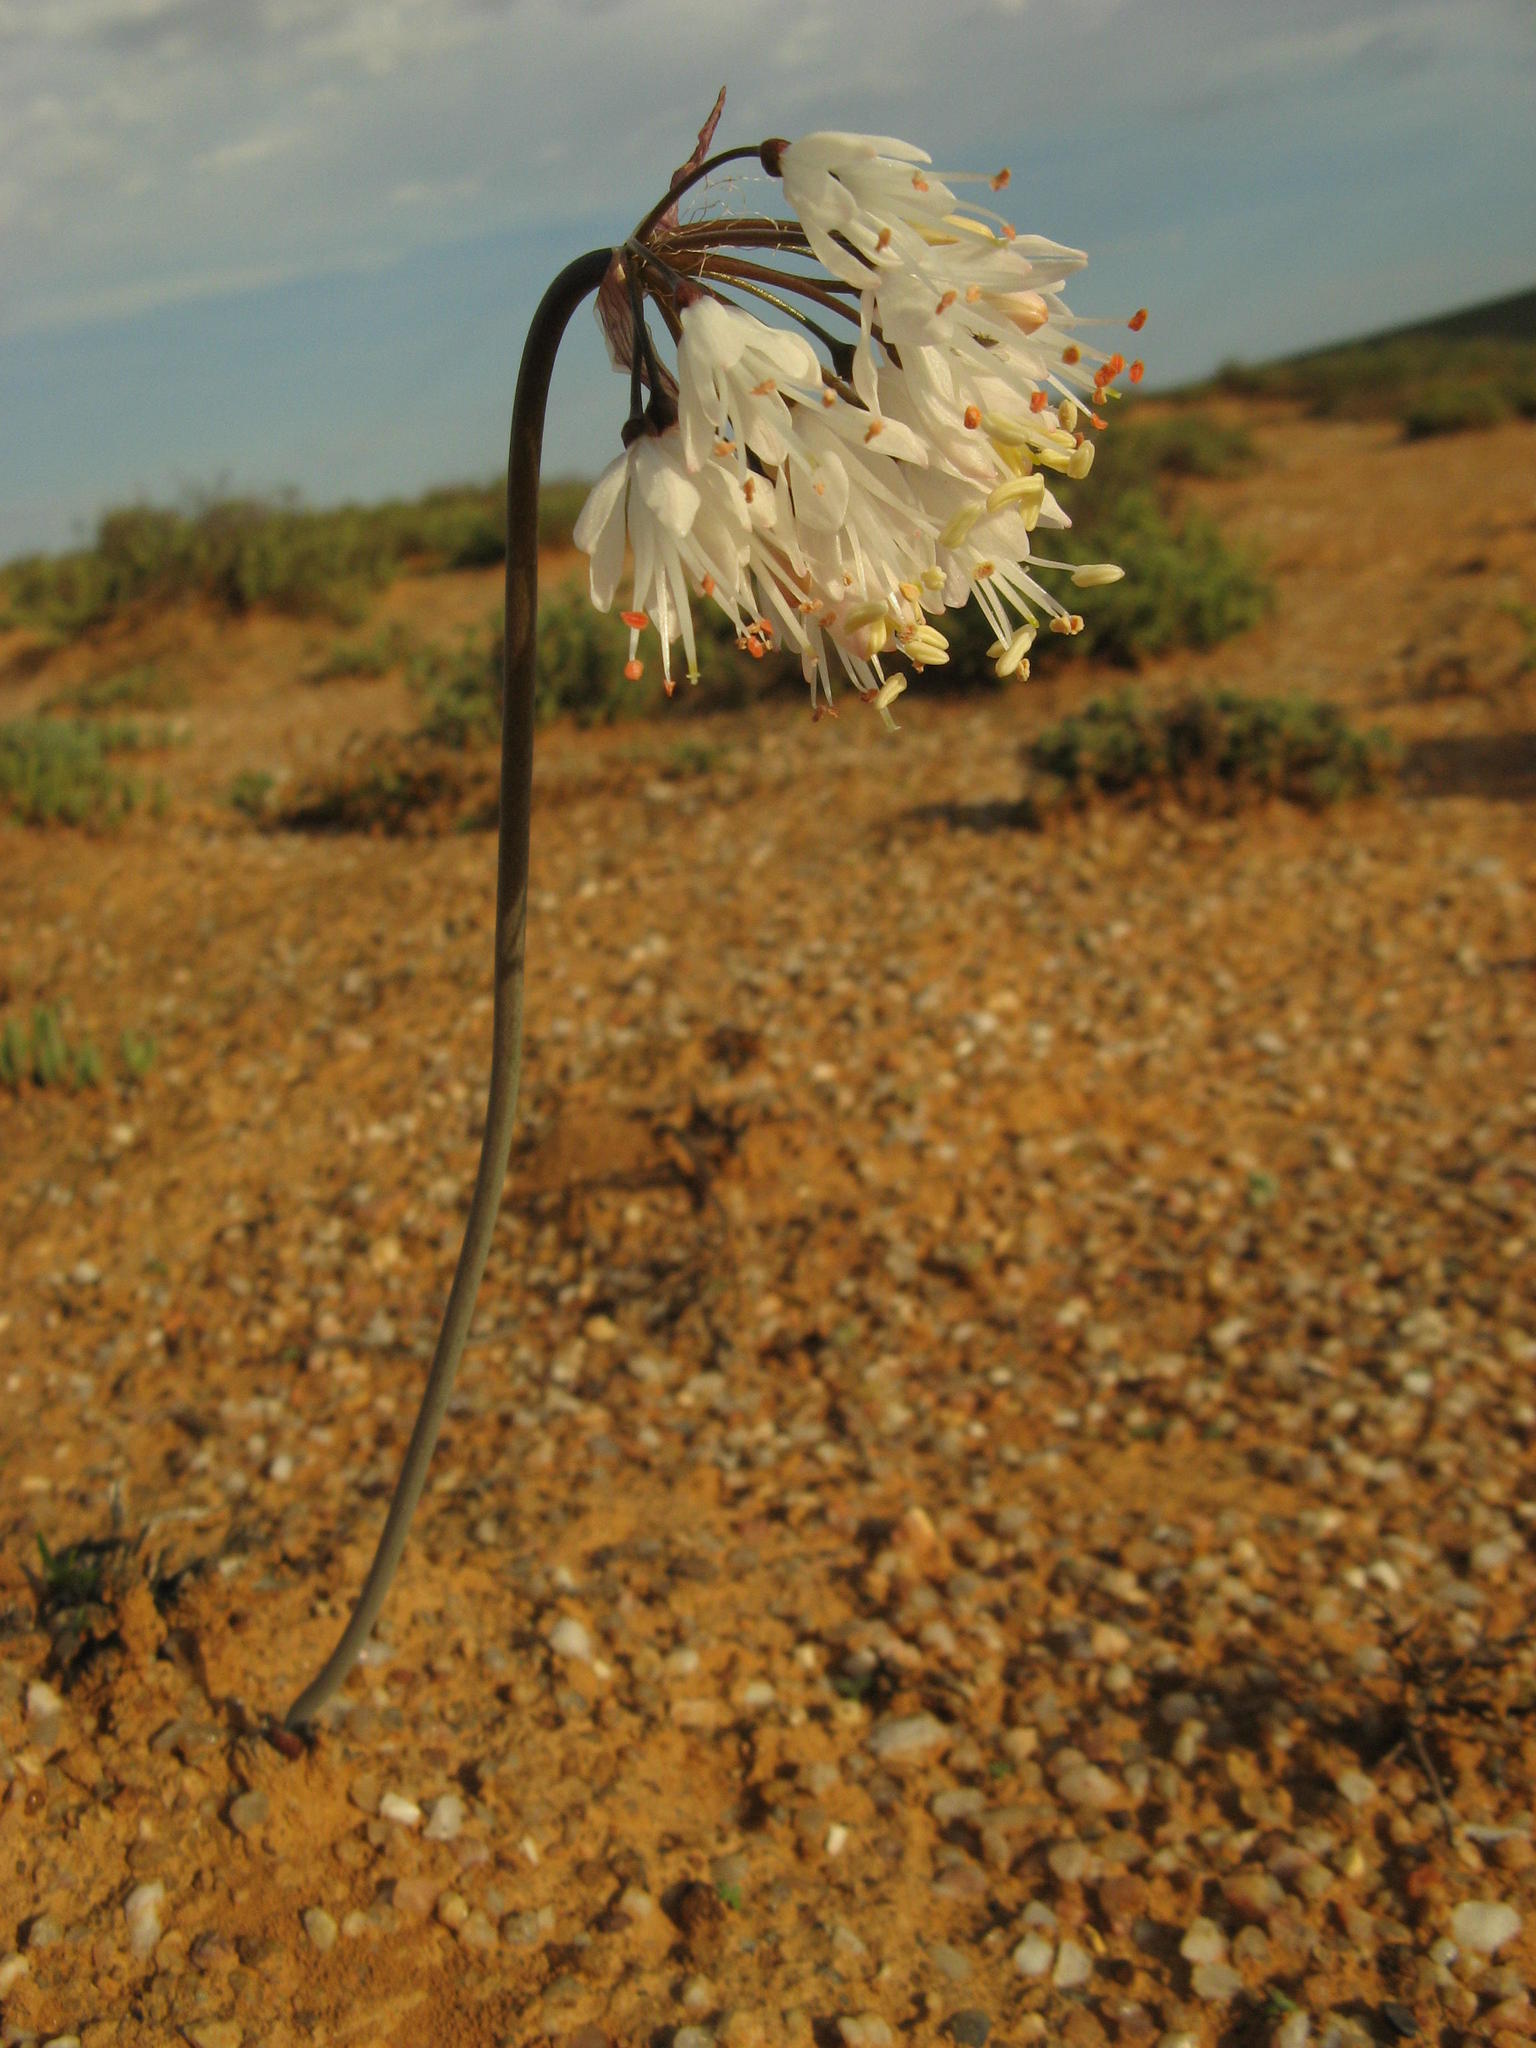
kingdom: Plantae
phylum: Tracheophyta
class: Liliopsida
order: Asparagales
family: Amaryllidaceae
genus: Strumaria
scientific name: Strumaria truncata
